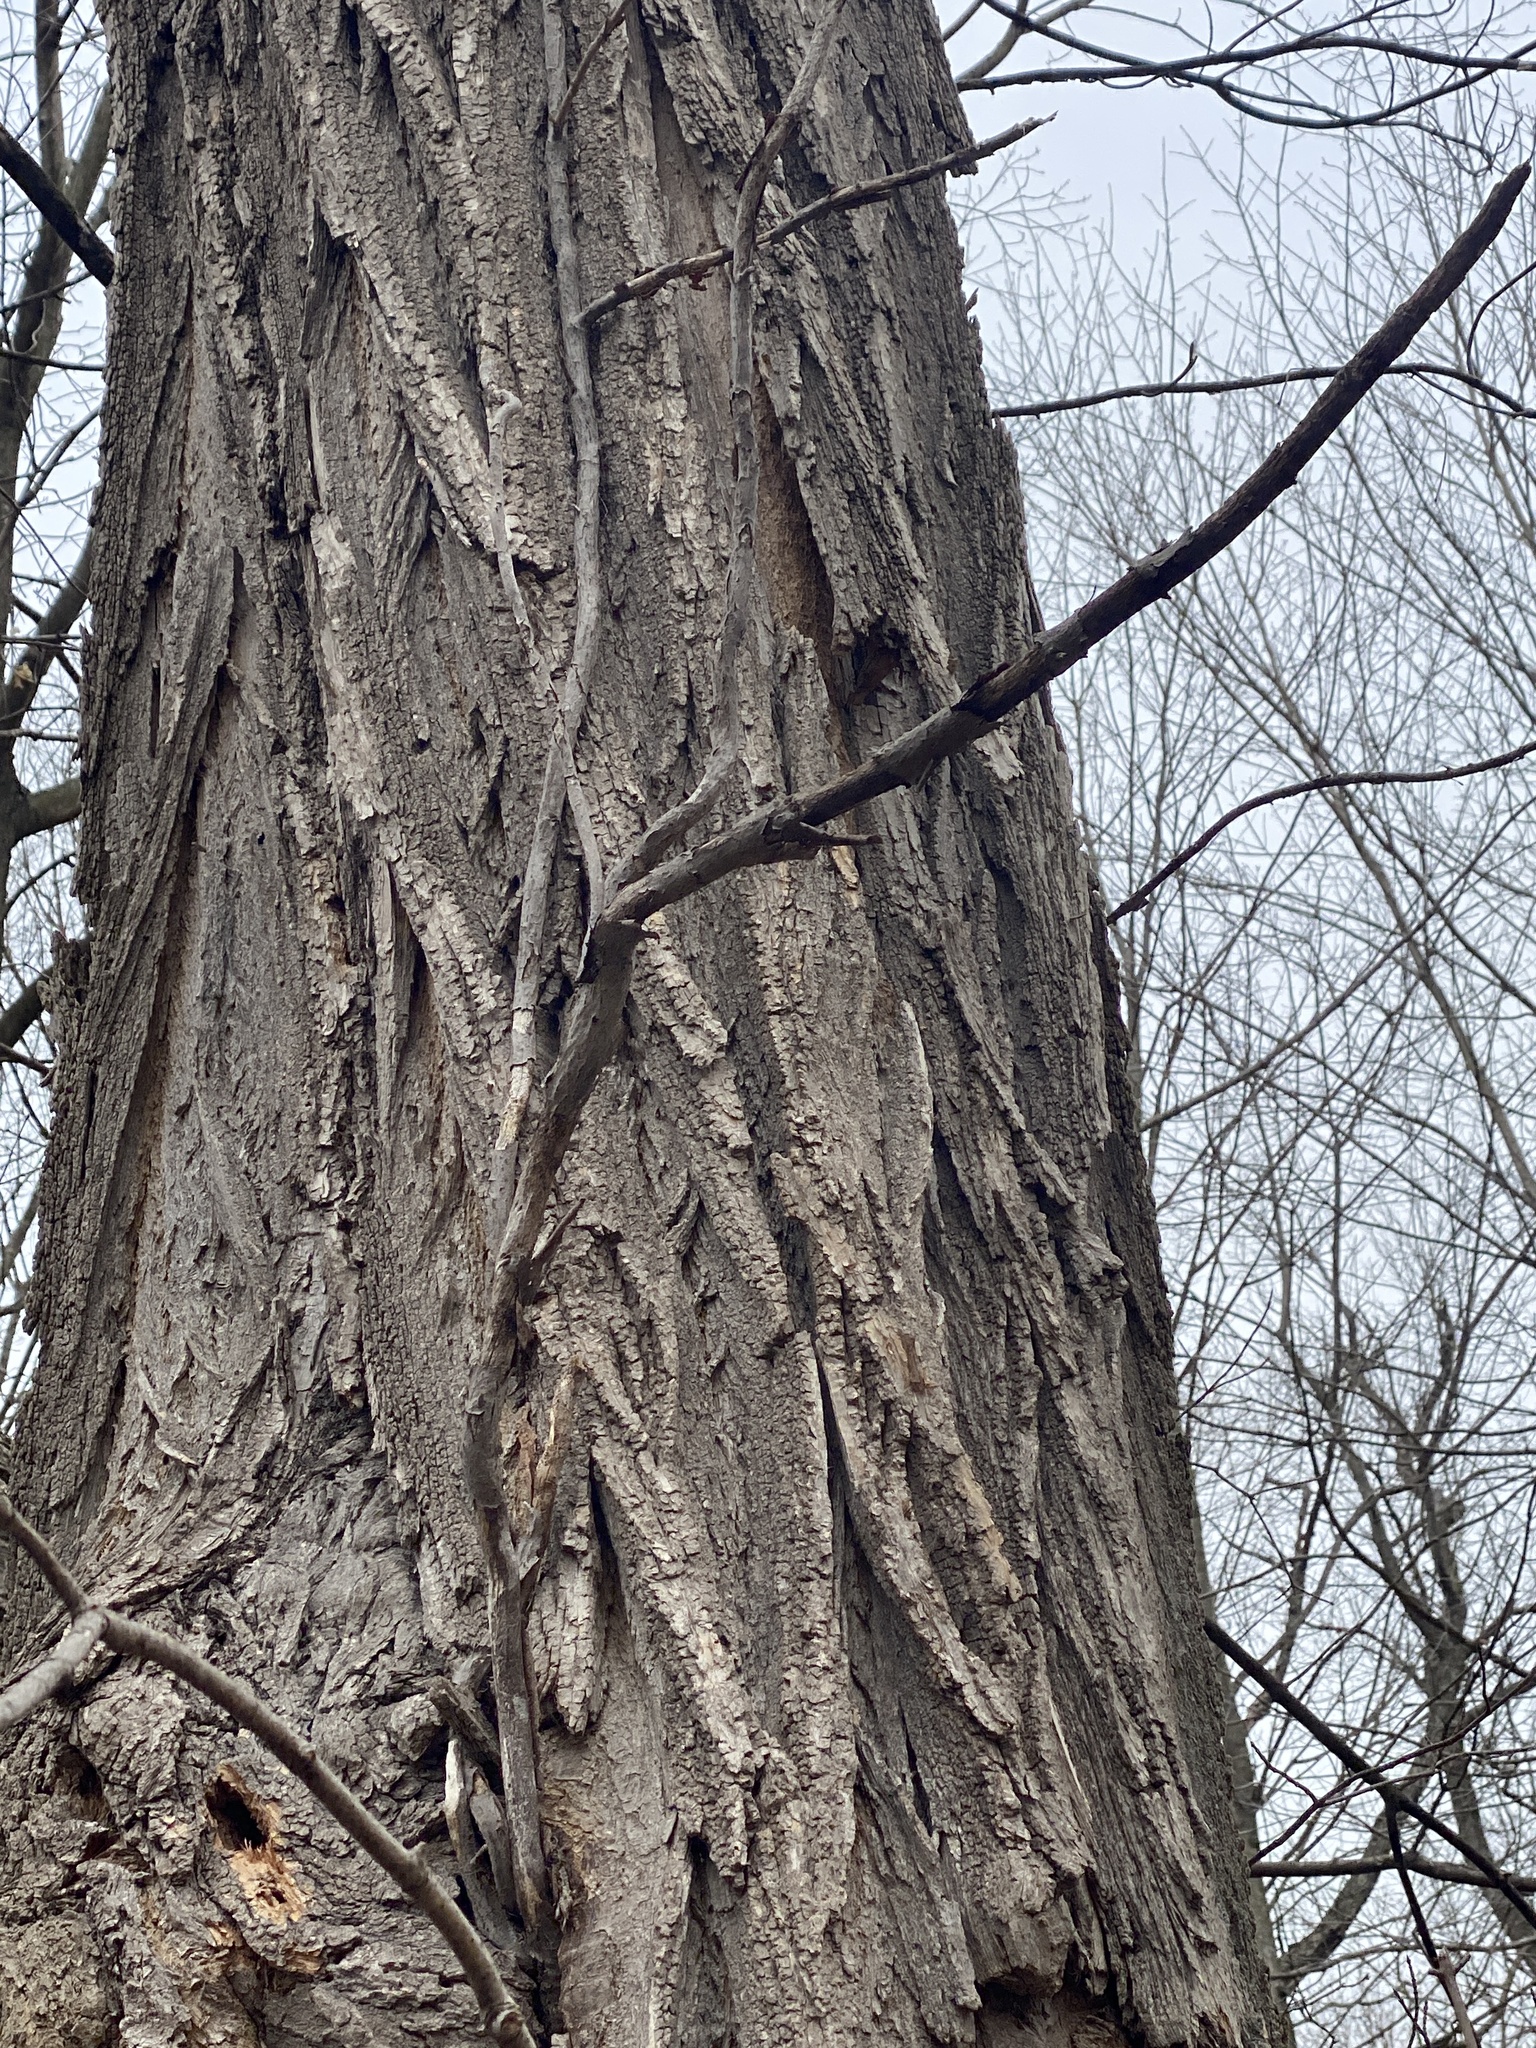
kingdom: Plantae
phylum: Tracheophyta
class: Magnoliopsida
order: Fabales
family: Fabaceae
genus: Robinia
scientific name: Robinia pseudoacacia
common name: Black locust
